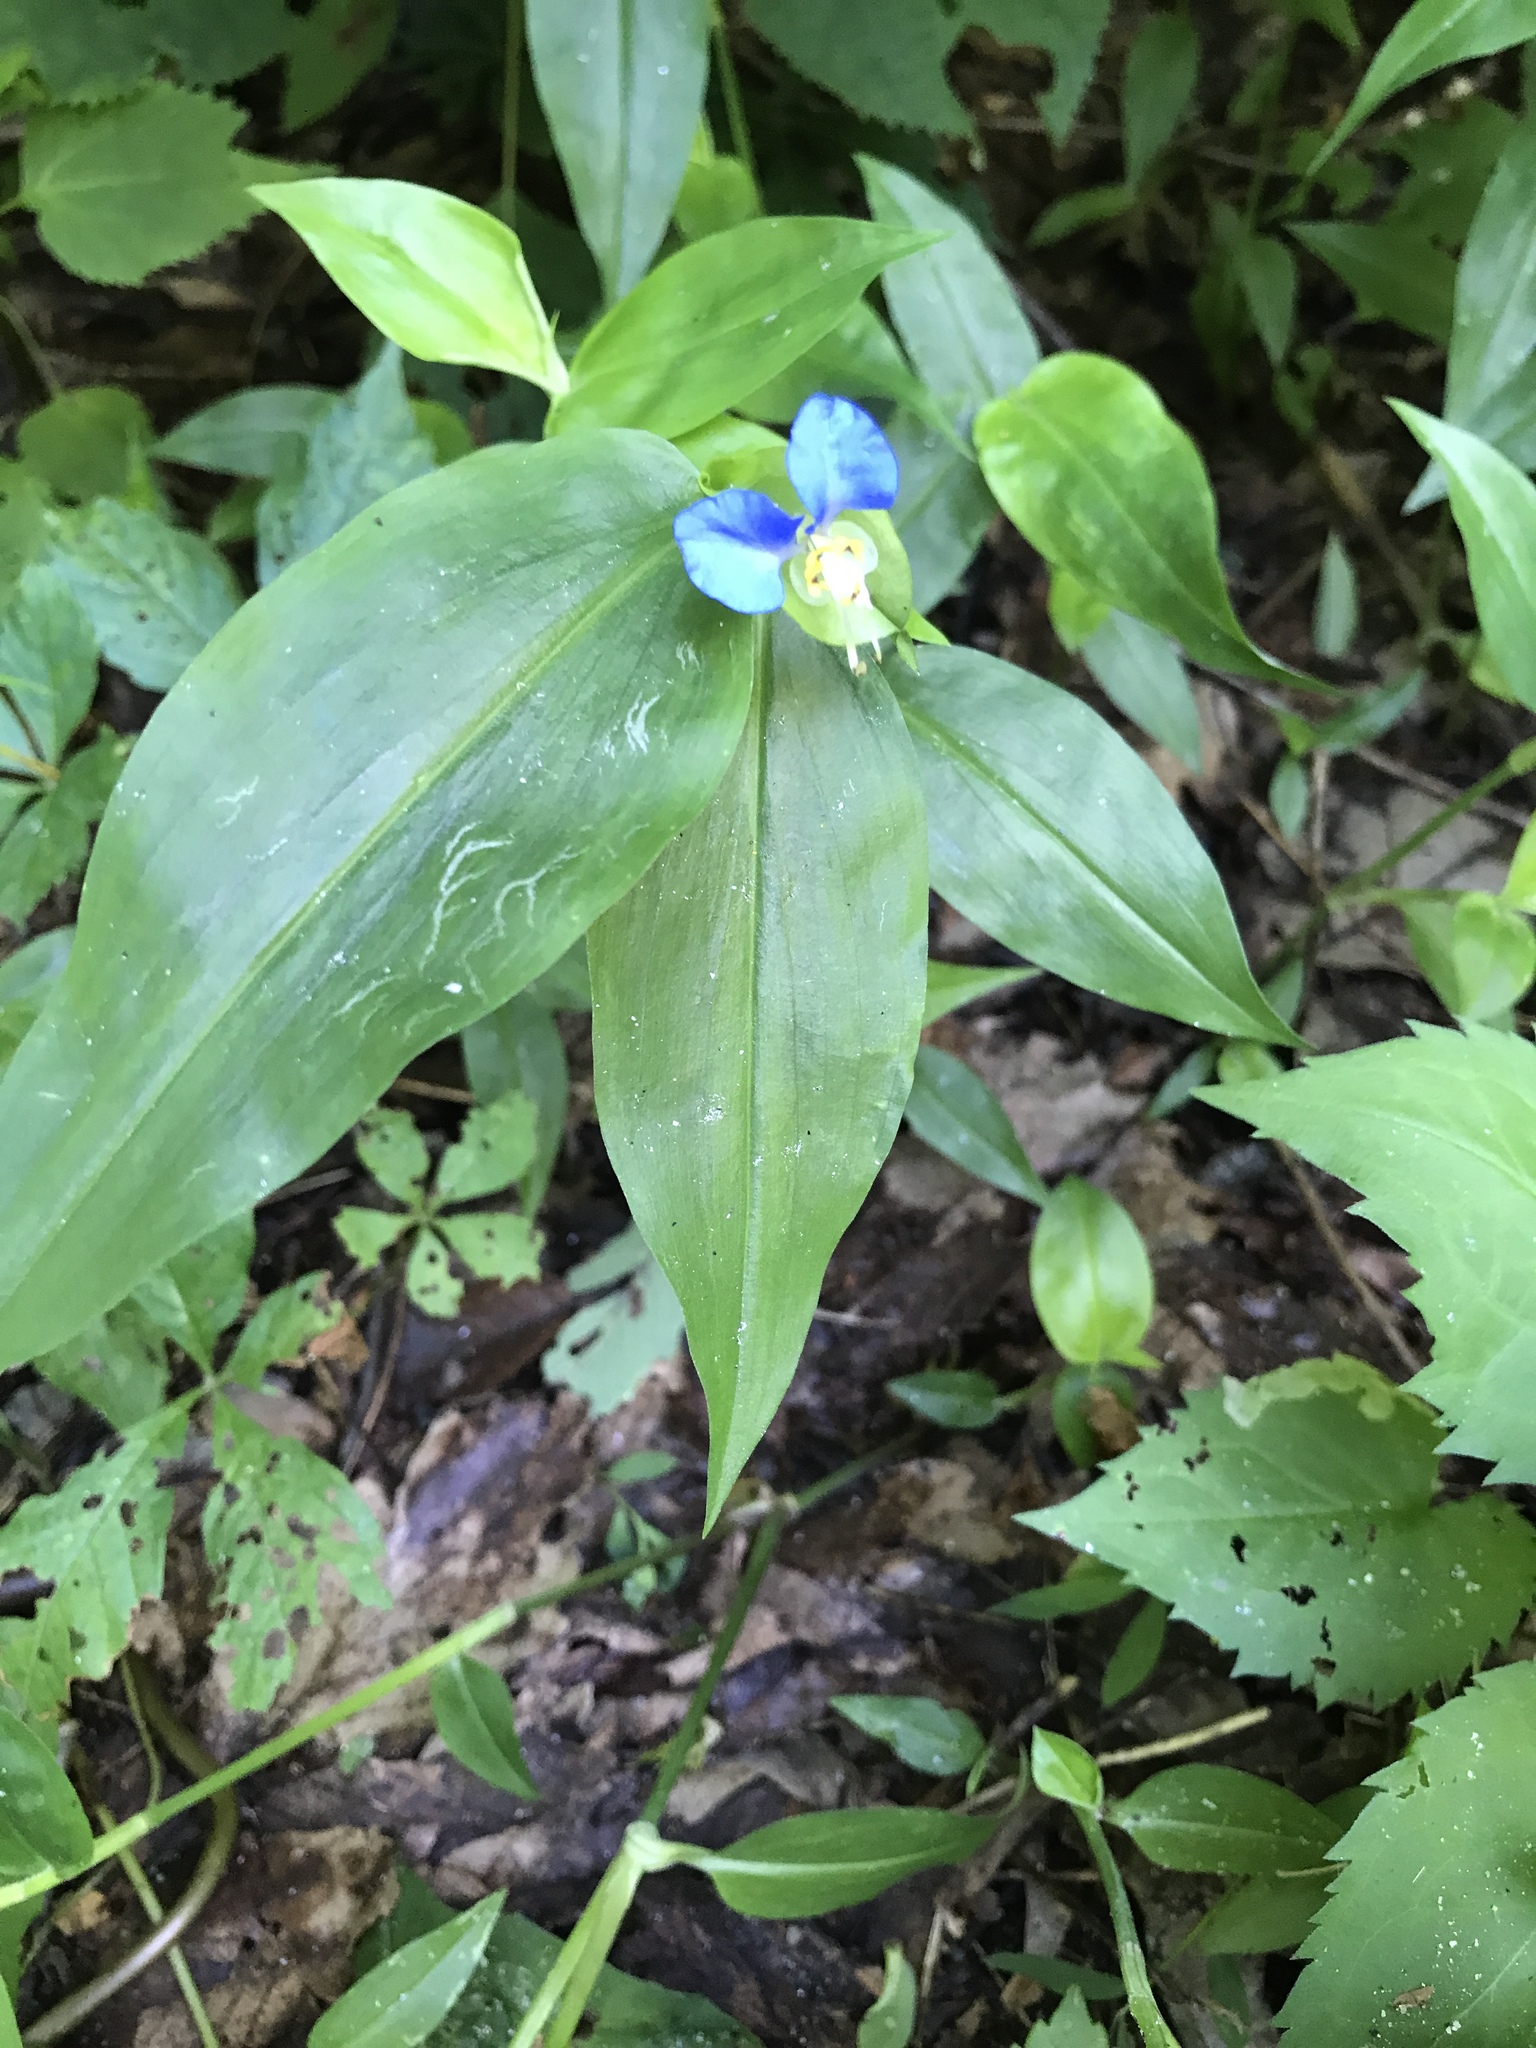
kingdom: Plantae
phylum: Tracheophyta
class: Liliopsida
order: Commelinales
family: Commelinaceae
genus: Commelina
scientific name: Commelina communis
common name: Asiatic dayflower
